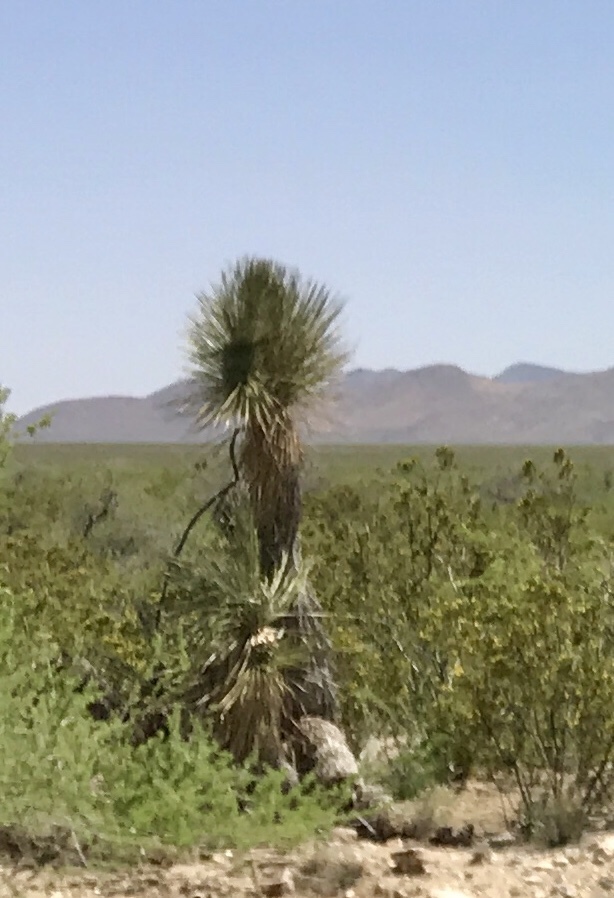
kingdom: Plantae
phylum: Tracheophyta
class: Liliopsida
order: Asparagales
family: Asparagaceae
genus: Yucca
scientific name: Yucca elata
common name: Palmella
